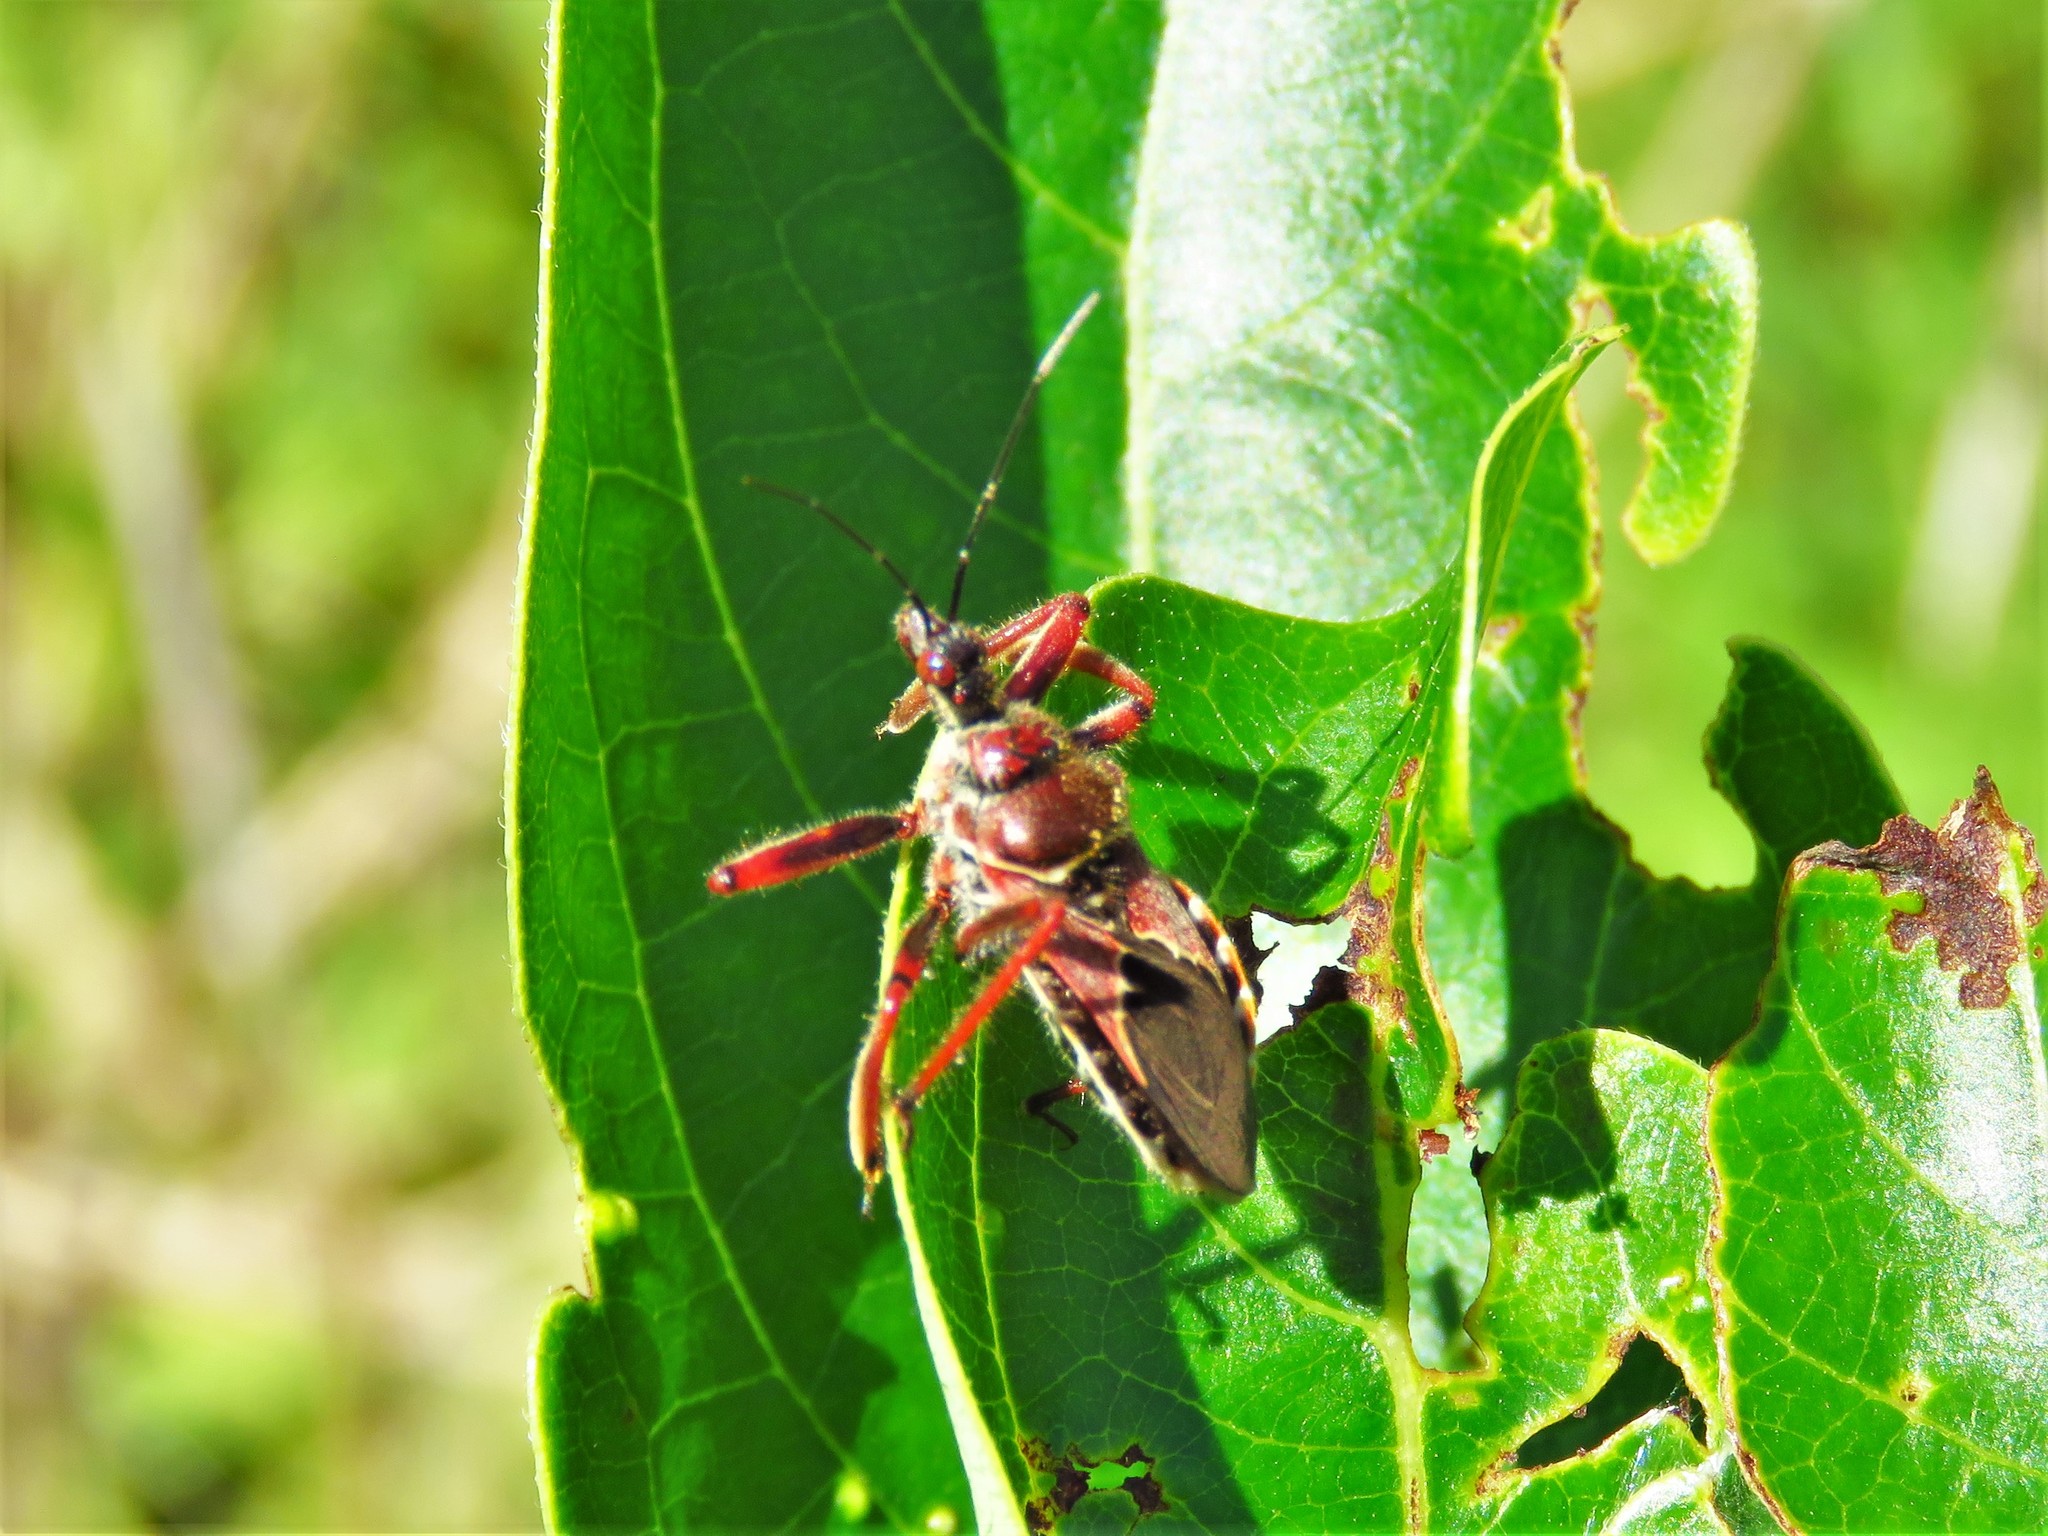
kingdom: Animalia
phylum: Arthropoda
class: Insecta
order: Hemiptera
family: Reduviidae
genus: Apiomerus
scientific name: Apiomerus spissipes
